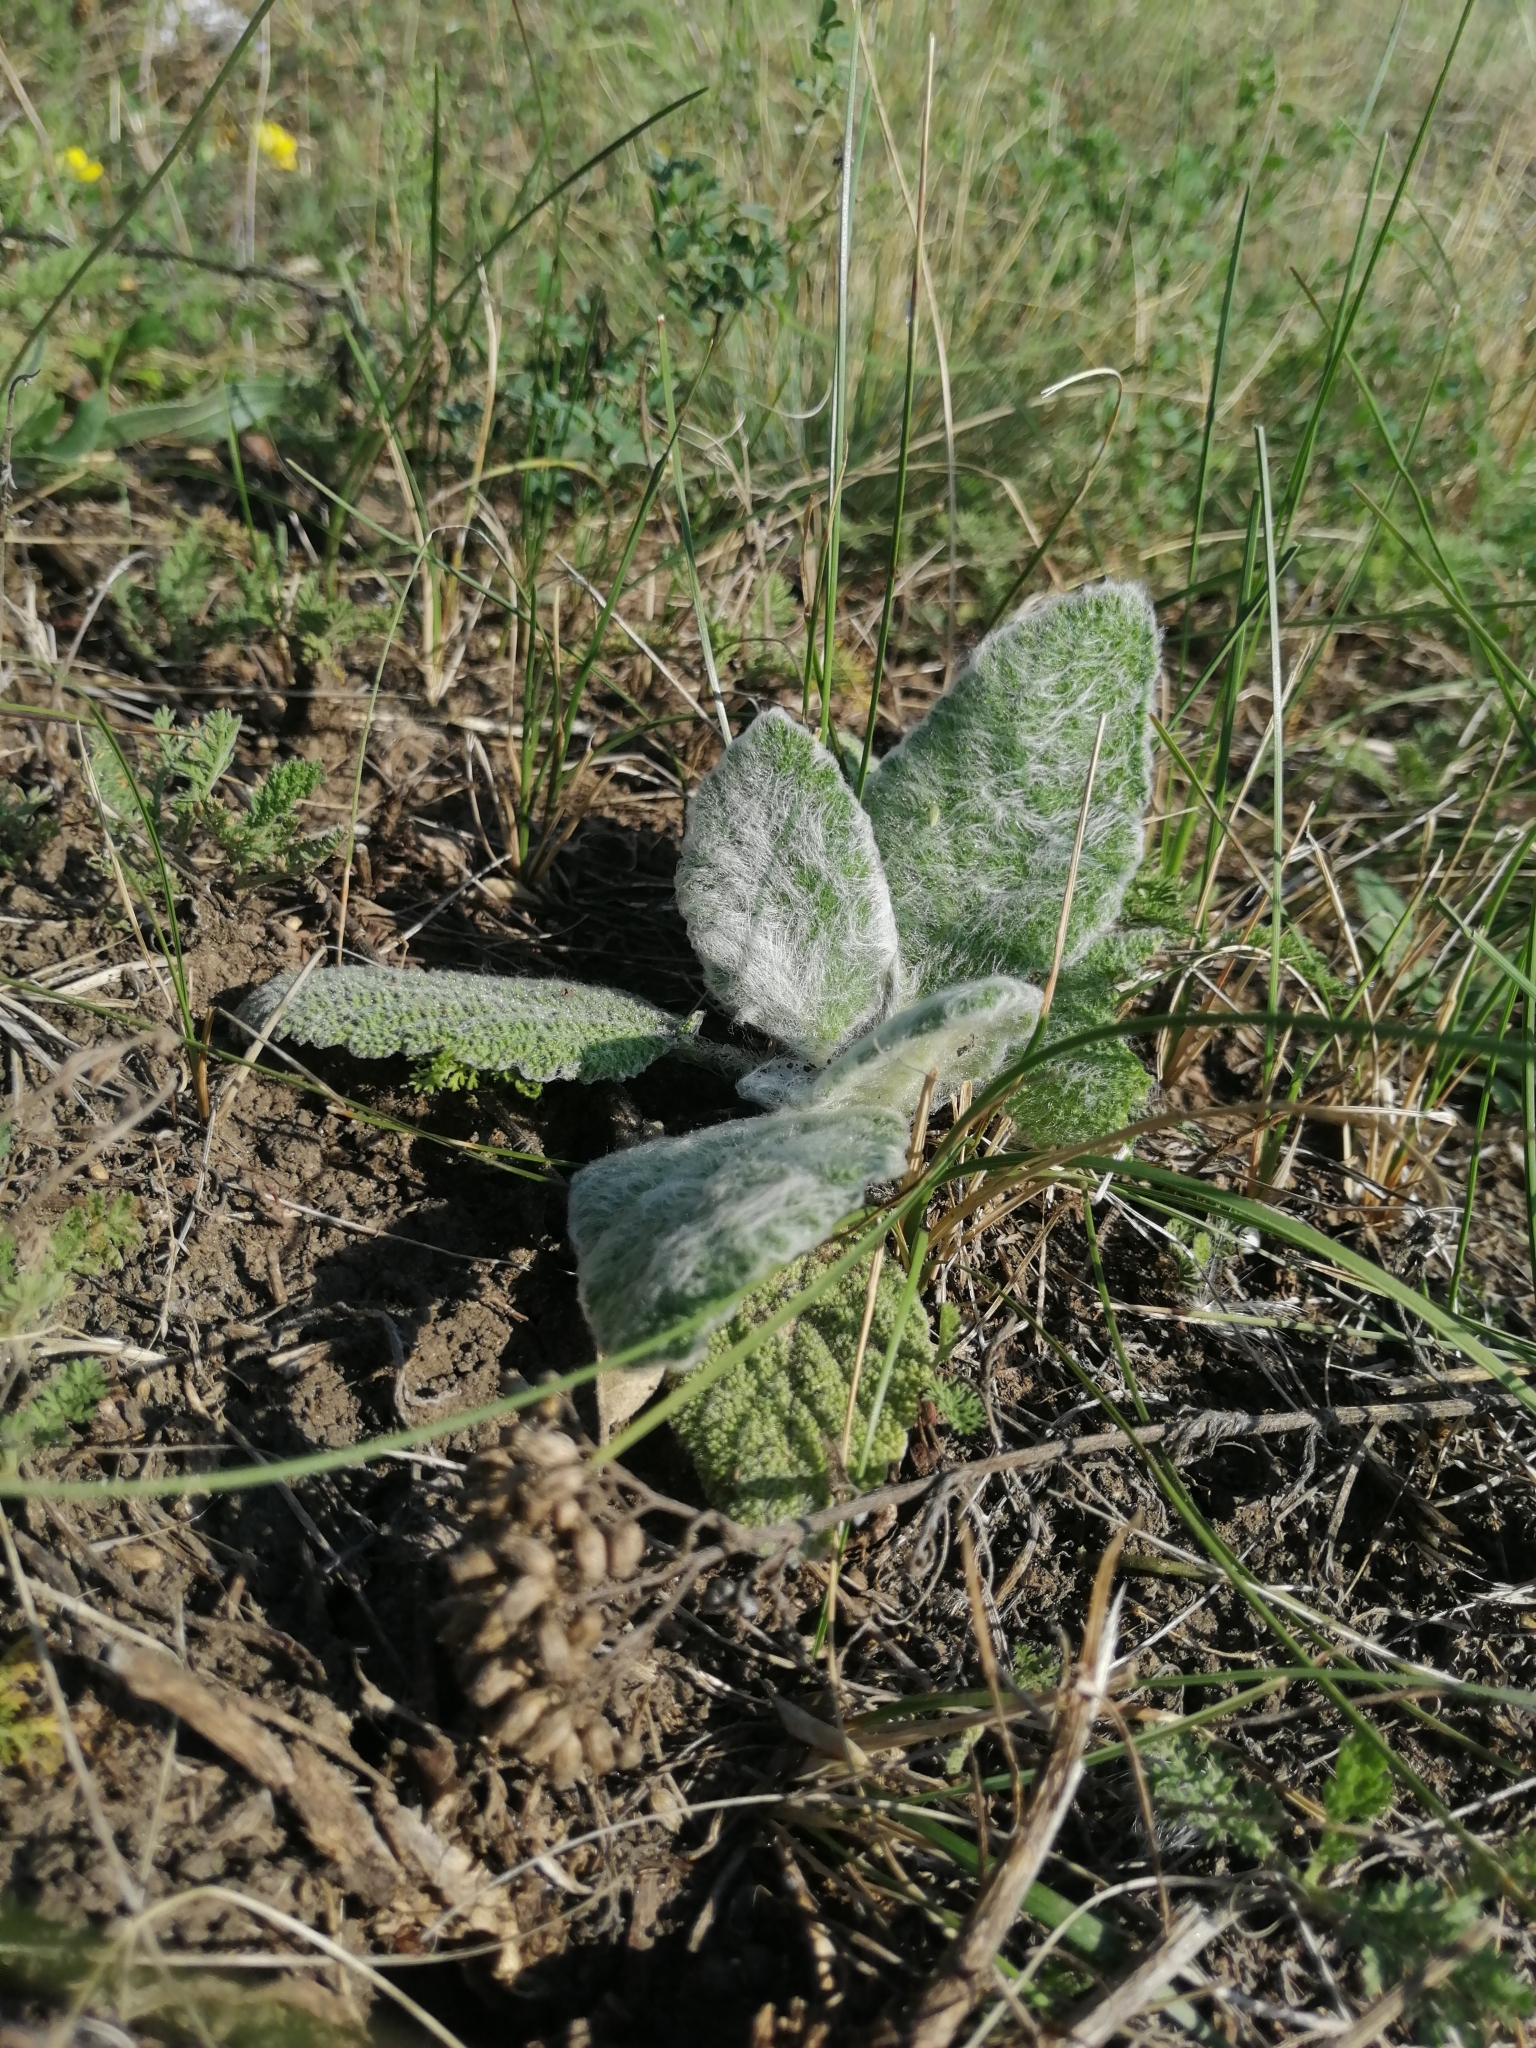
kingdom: Plantae
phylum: Tracheophyta
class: Magnoliopsida
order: Lamiales
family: Lamiaceae
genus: Salvia
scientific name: Salvia aethiopis
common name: Mediterranean sage
